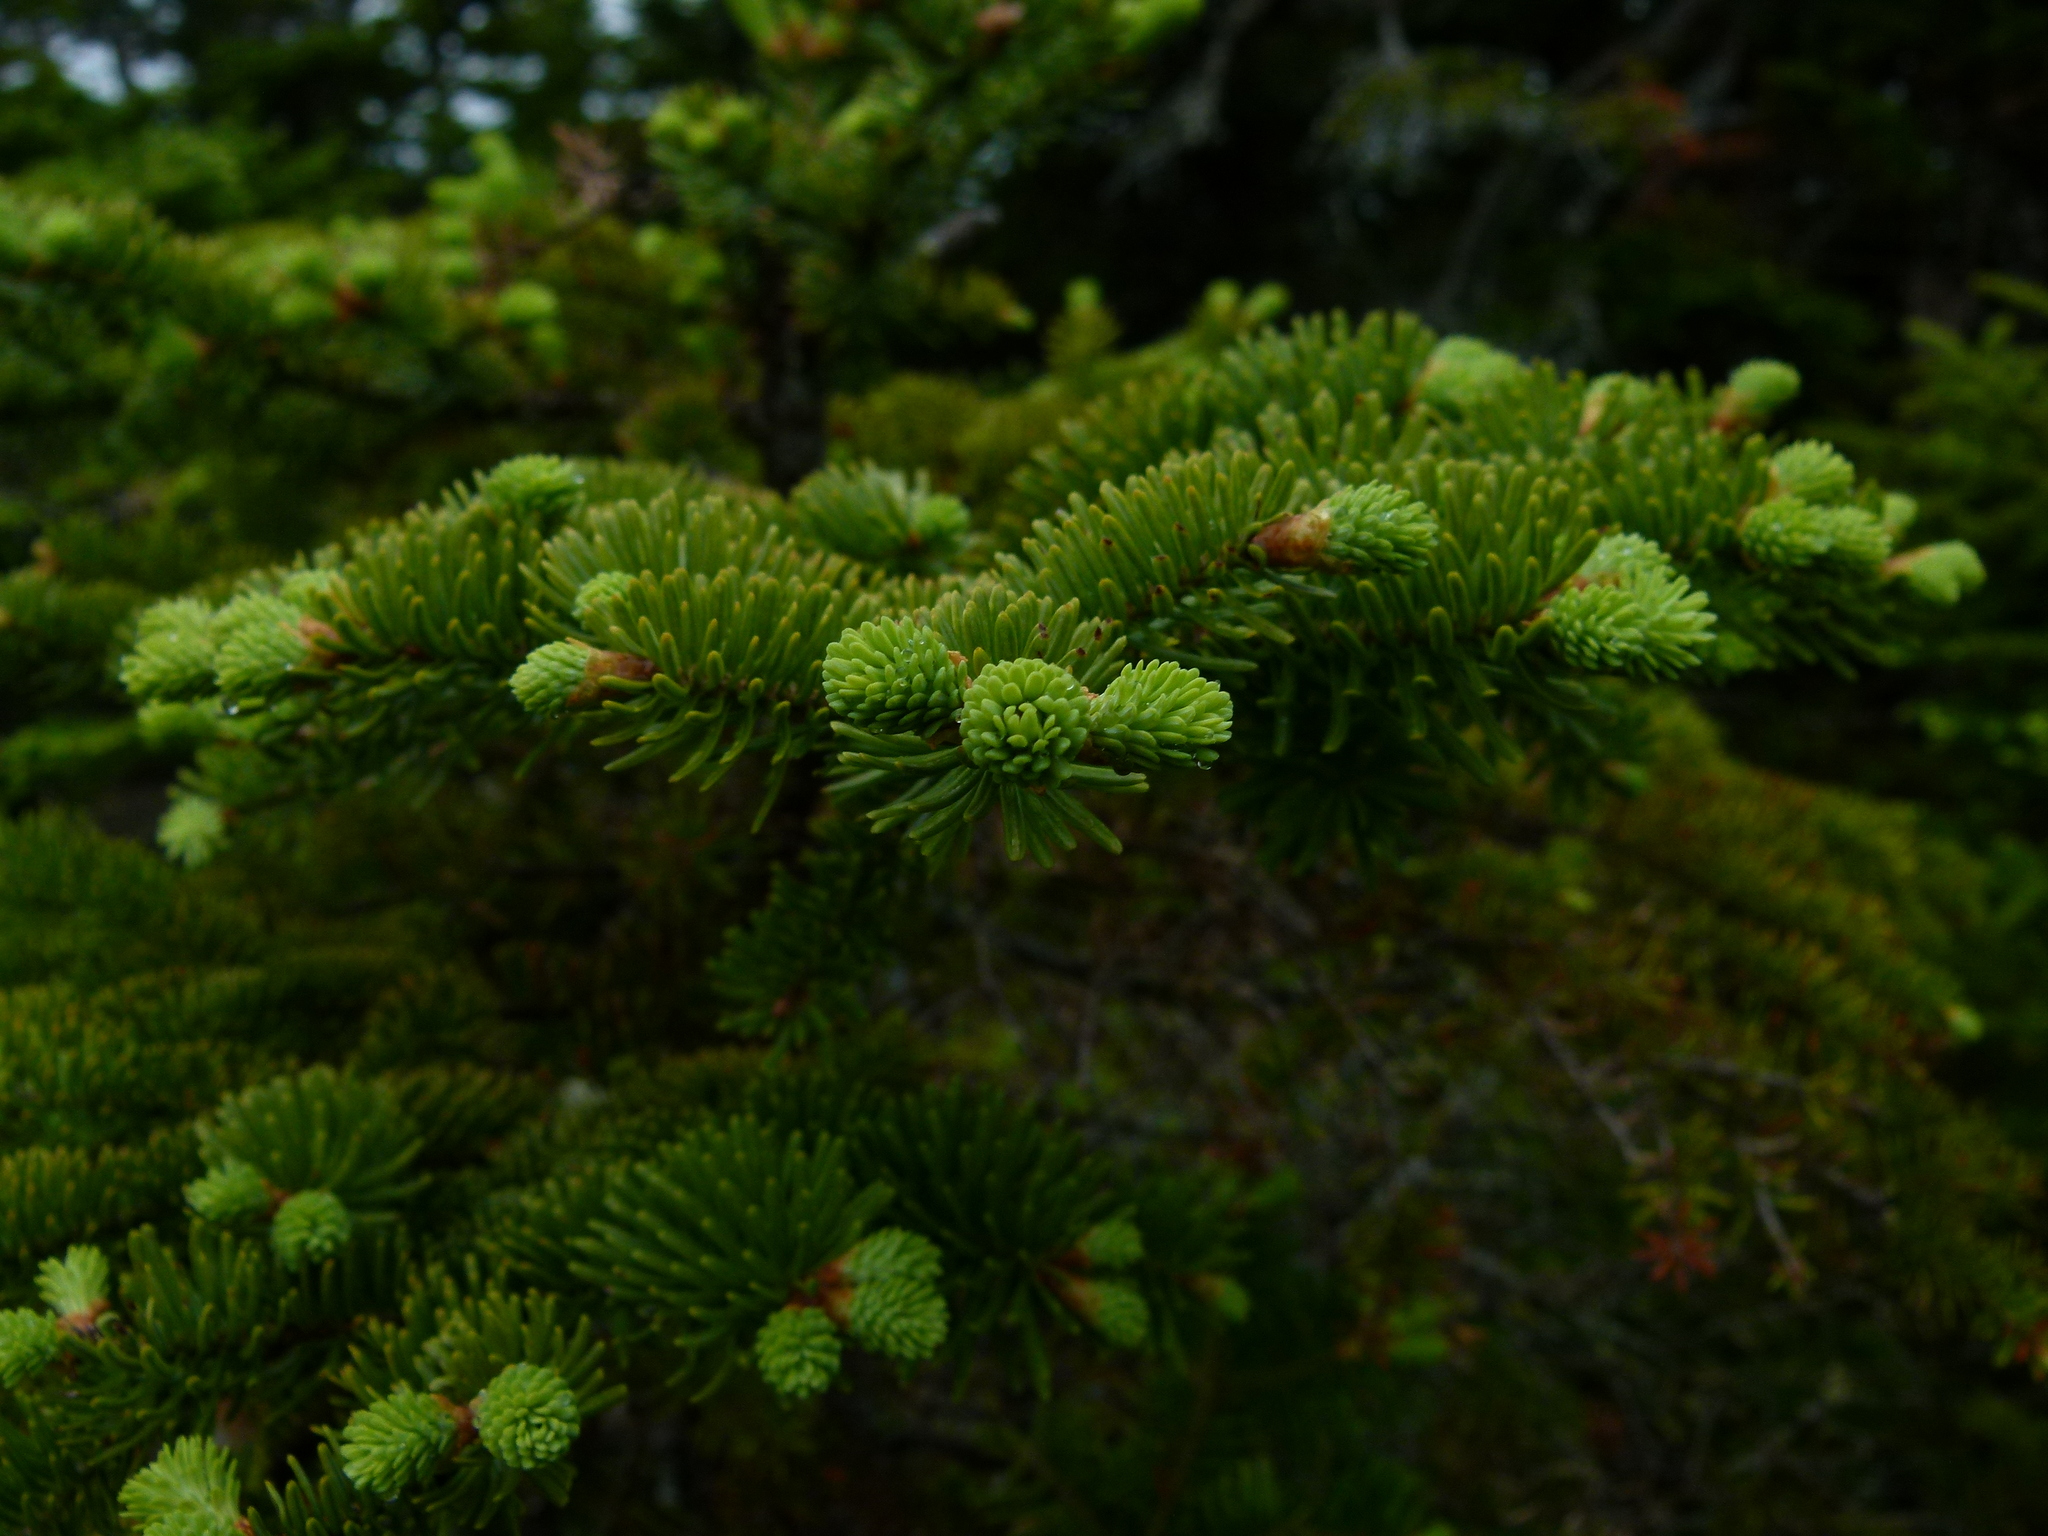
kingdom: Plantae
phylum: Tracheophyta
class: Pinopsida
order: Pinales
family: Pinaceae
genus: Abies
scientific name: Abies balsamea
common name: Balsam fir
